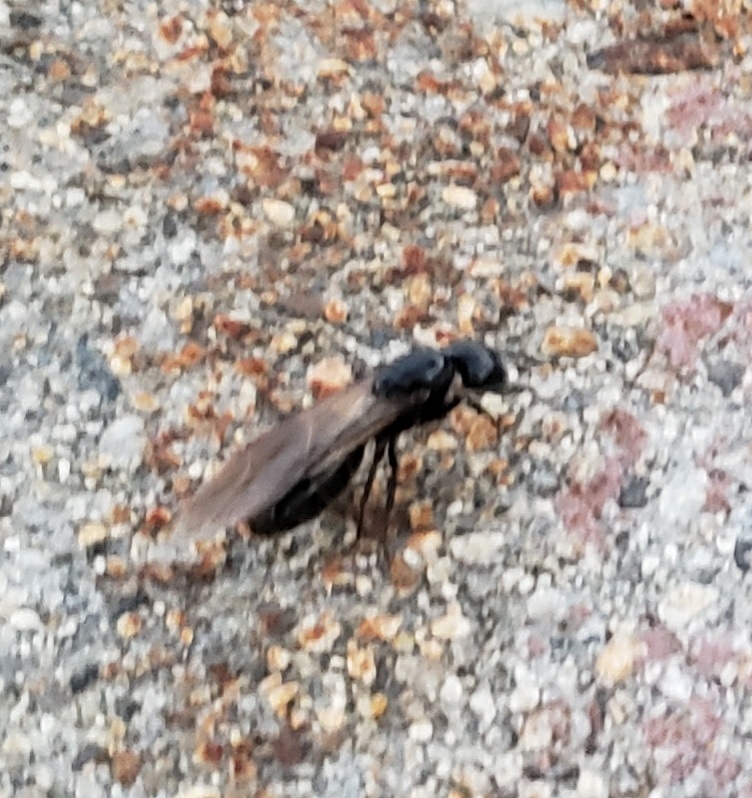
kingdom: Animalia
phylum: Arthropoda
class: Insecta
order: Hymenoptera
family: Formicidae
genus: Camponotus
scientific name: Camponotus pennsylvanicus
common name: Black carpenter ant
